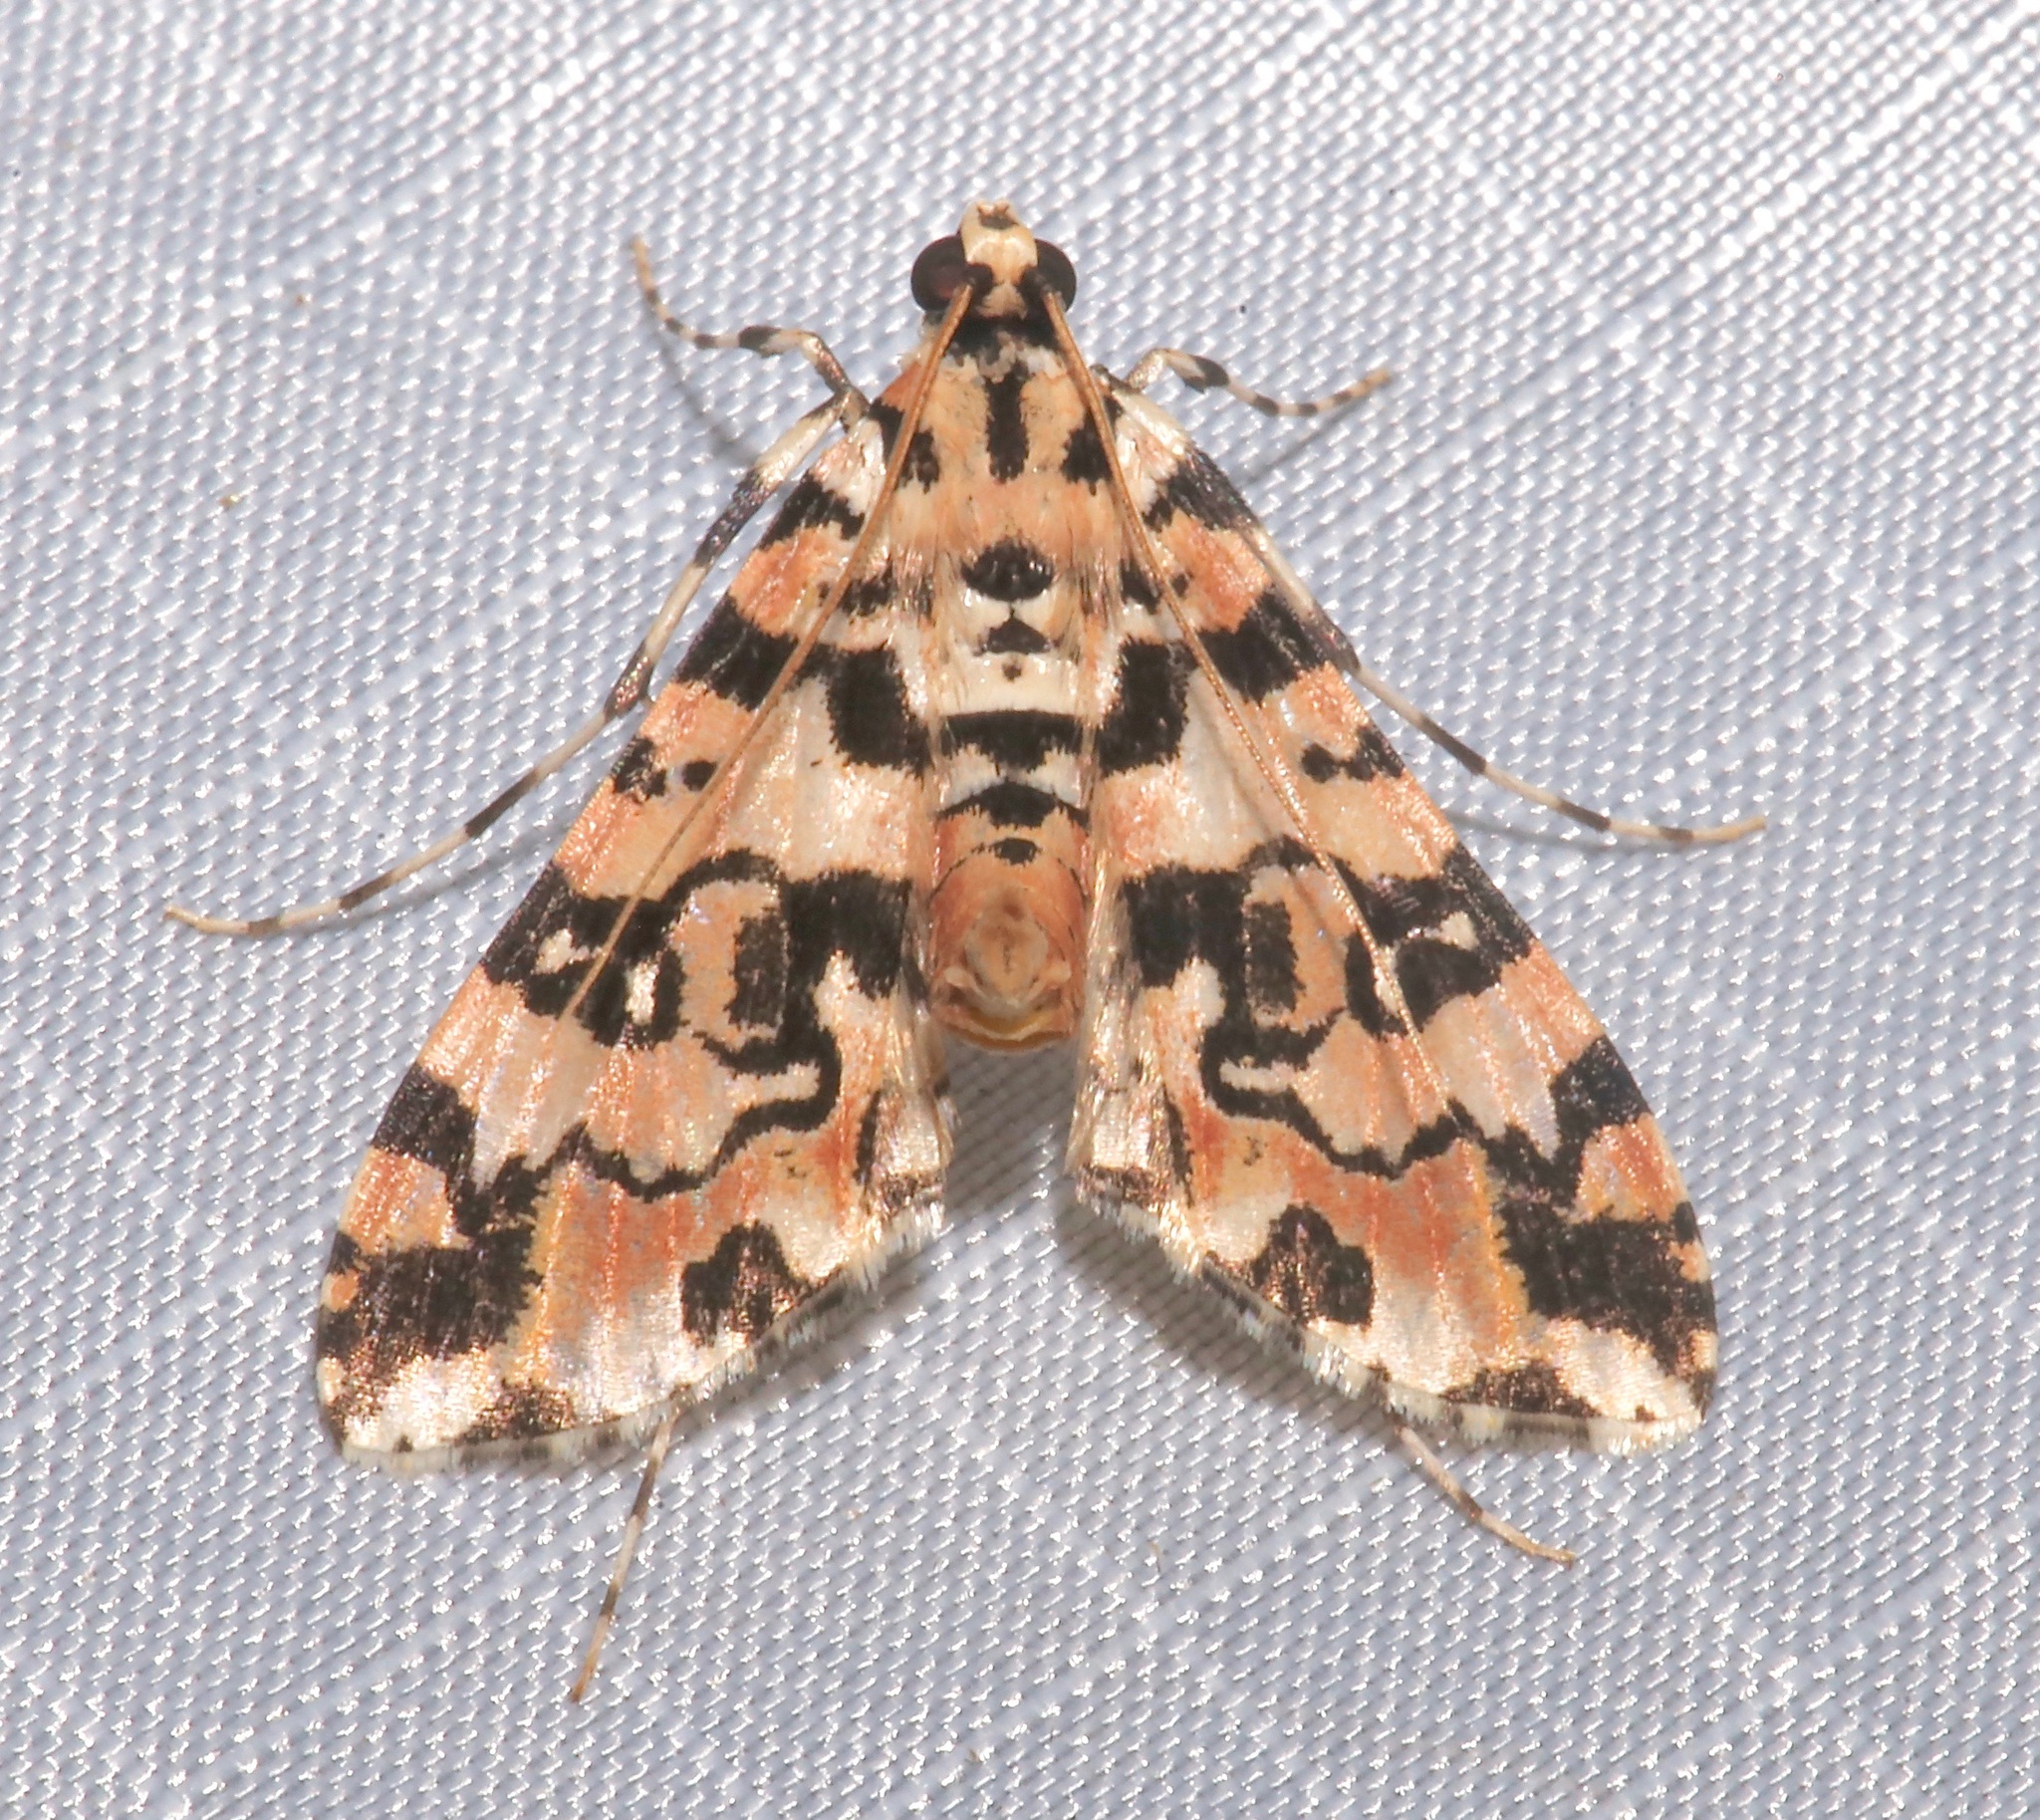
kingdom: Animalia
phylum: Arthropoda
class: Insecta
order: Lepidoptera
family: Crambidae
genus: Conchylodes
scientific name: Conchylodes bryophilalis
